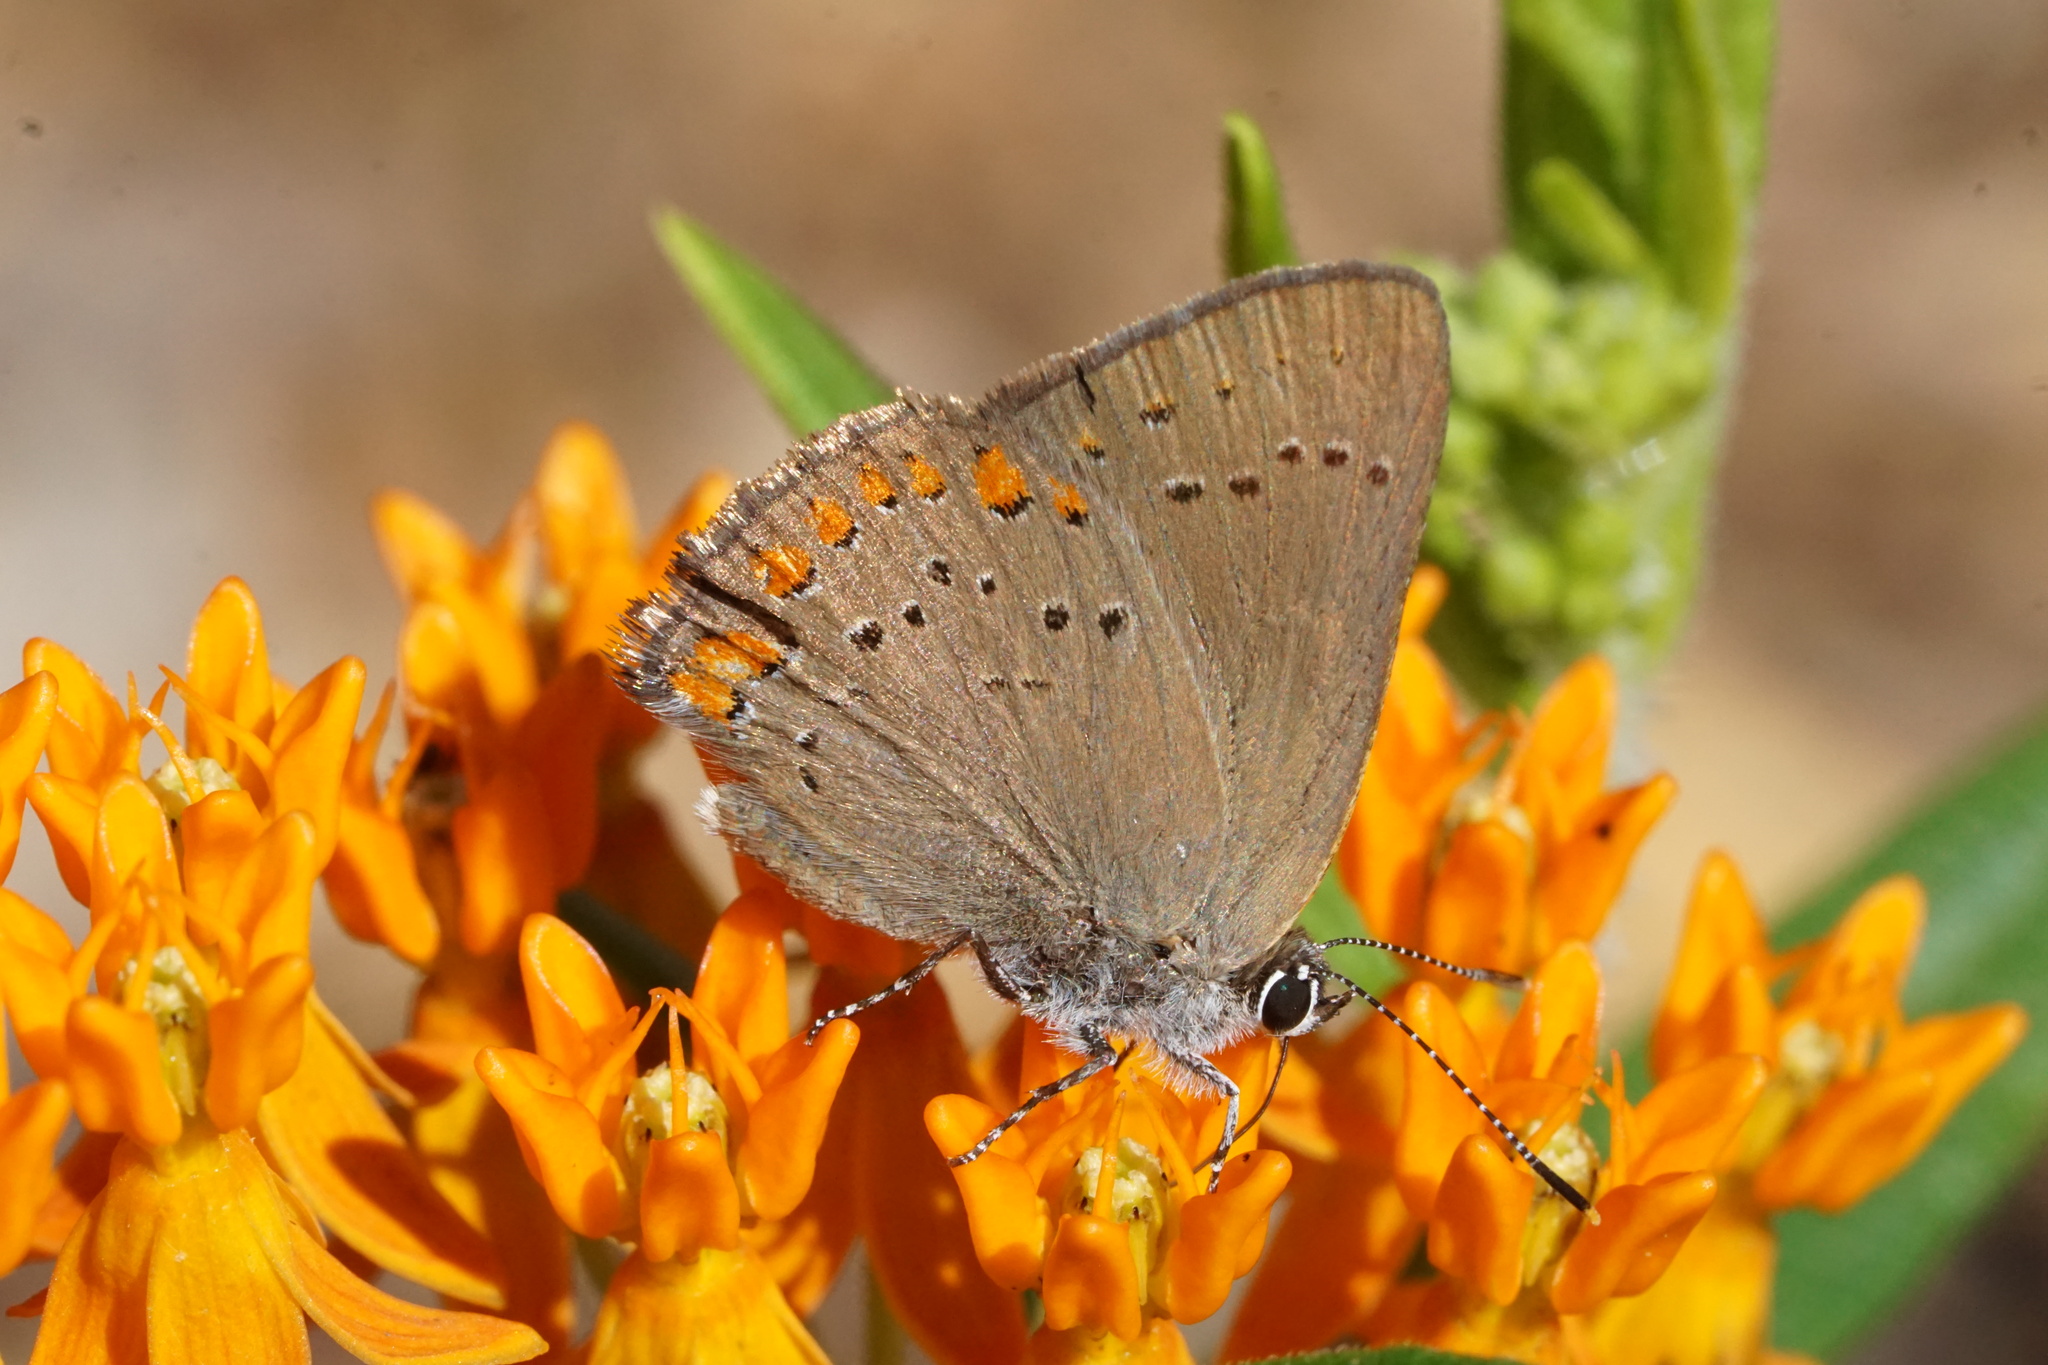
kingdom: Animalia
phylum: Arthropoda
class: Insecta
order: Lepidoptera
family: Lycaenidae
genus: Harkenclenus
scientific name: Harkenclenus titus
